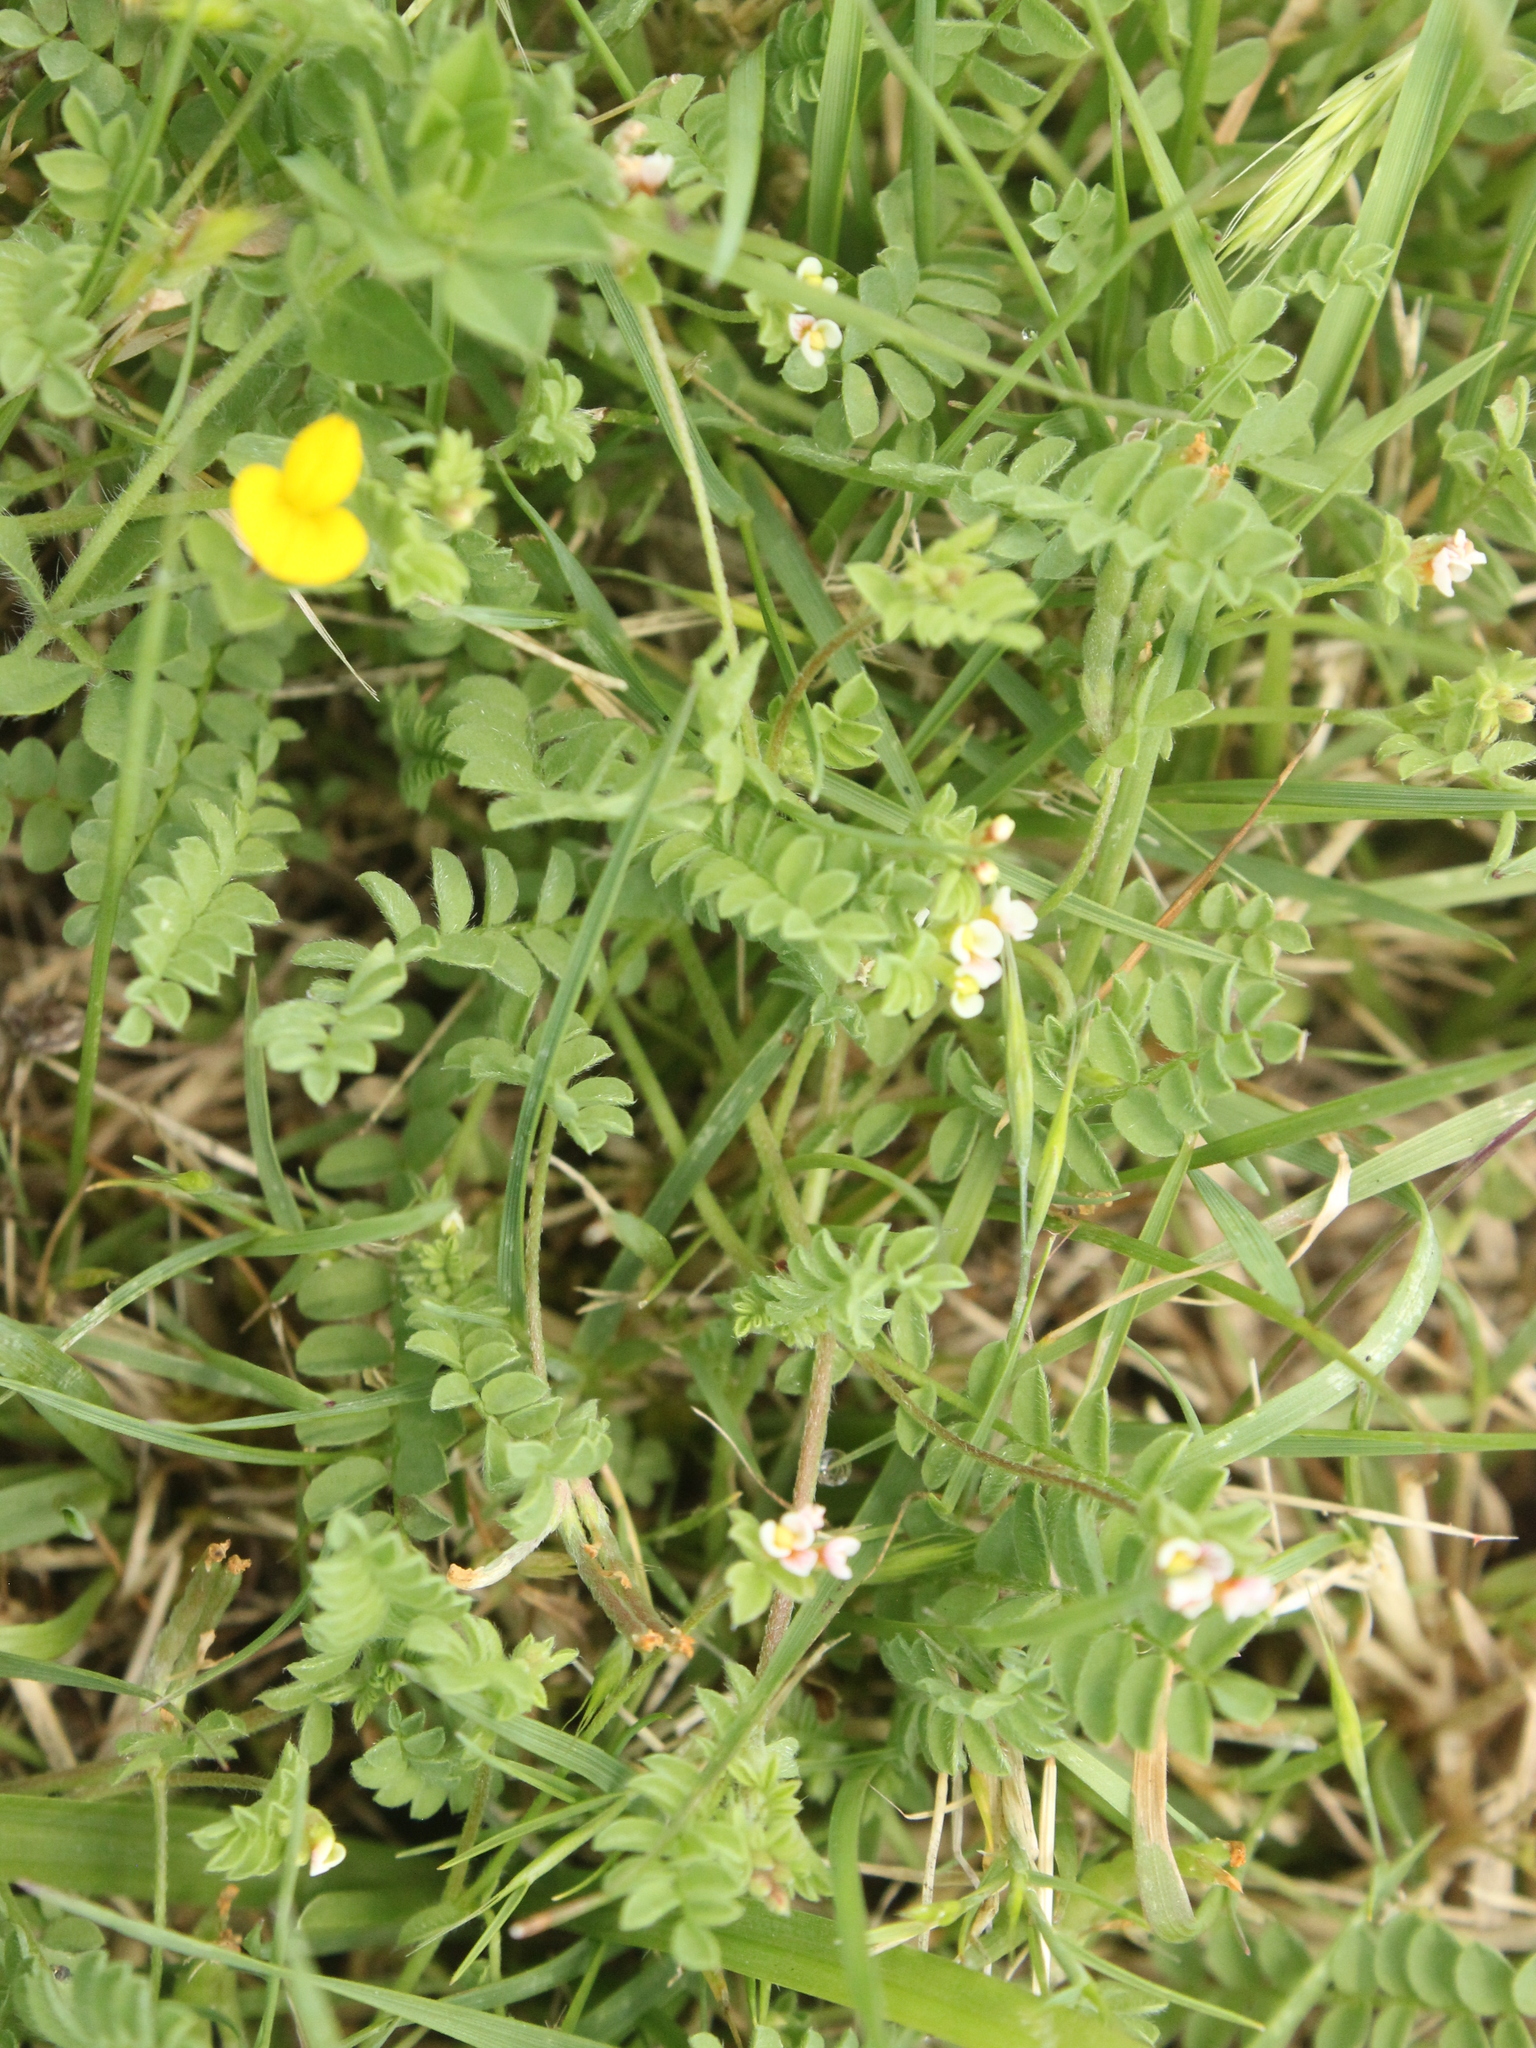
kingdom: Plantae
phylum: Tracheophyta
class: Magnoliopsida
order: Fabales
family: Fabaceae
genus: Ornithopus
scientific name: Ornithopus perpusillus
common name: Bird's-foot
